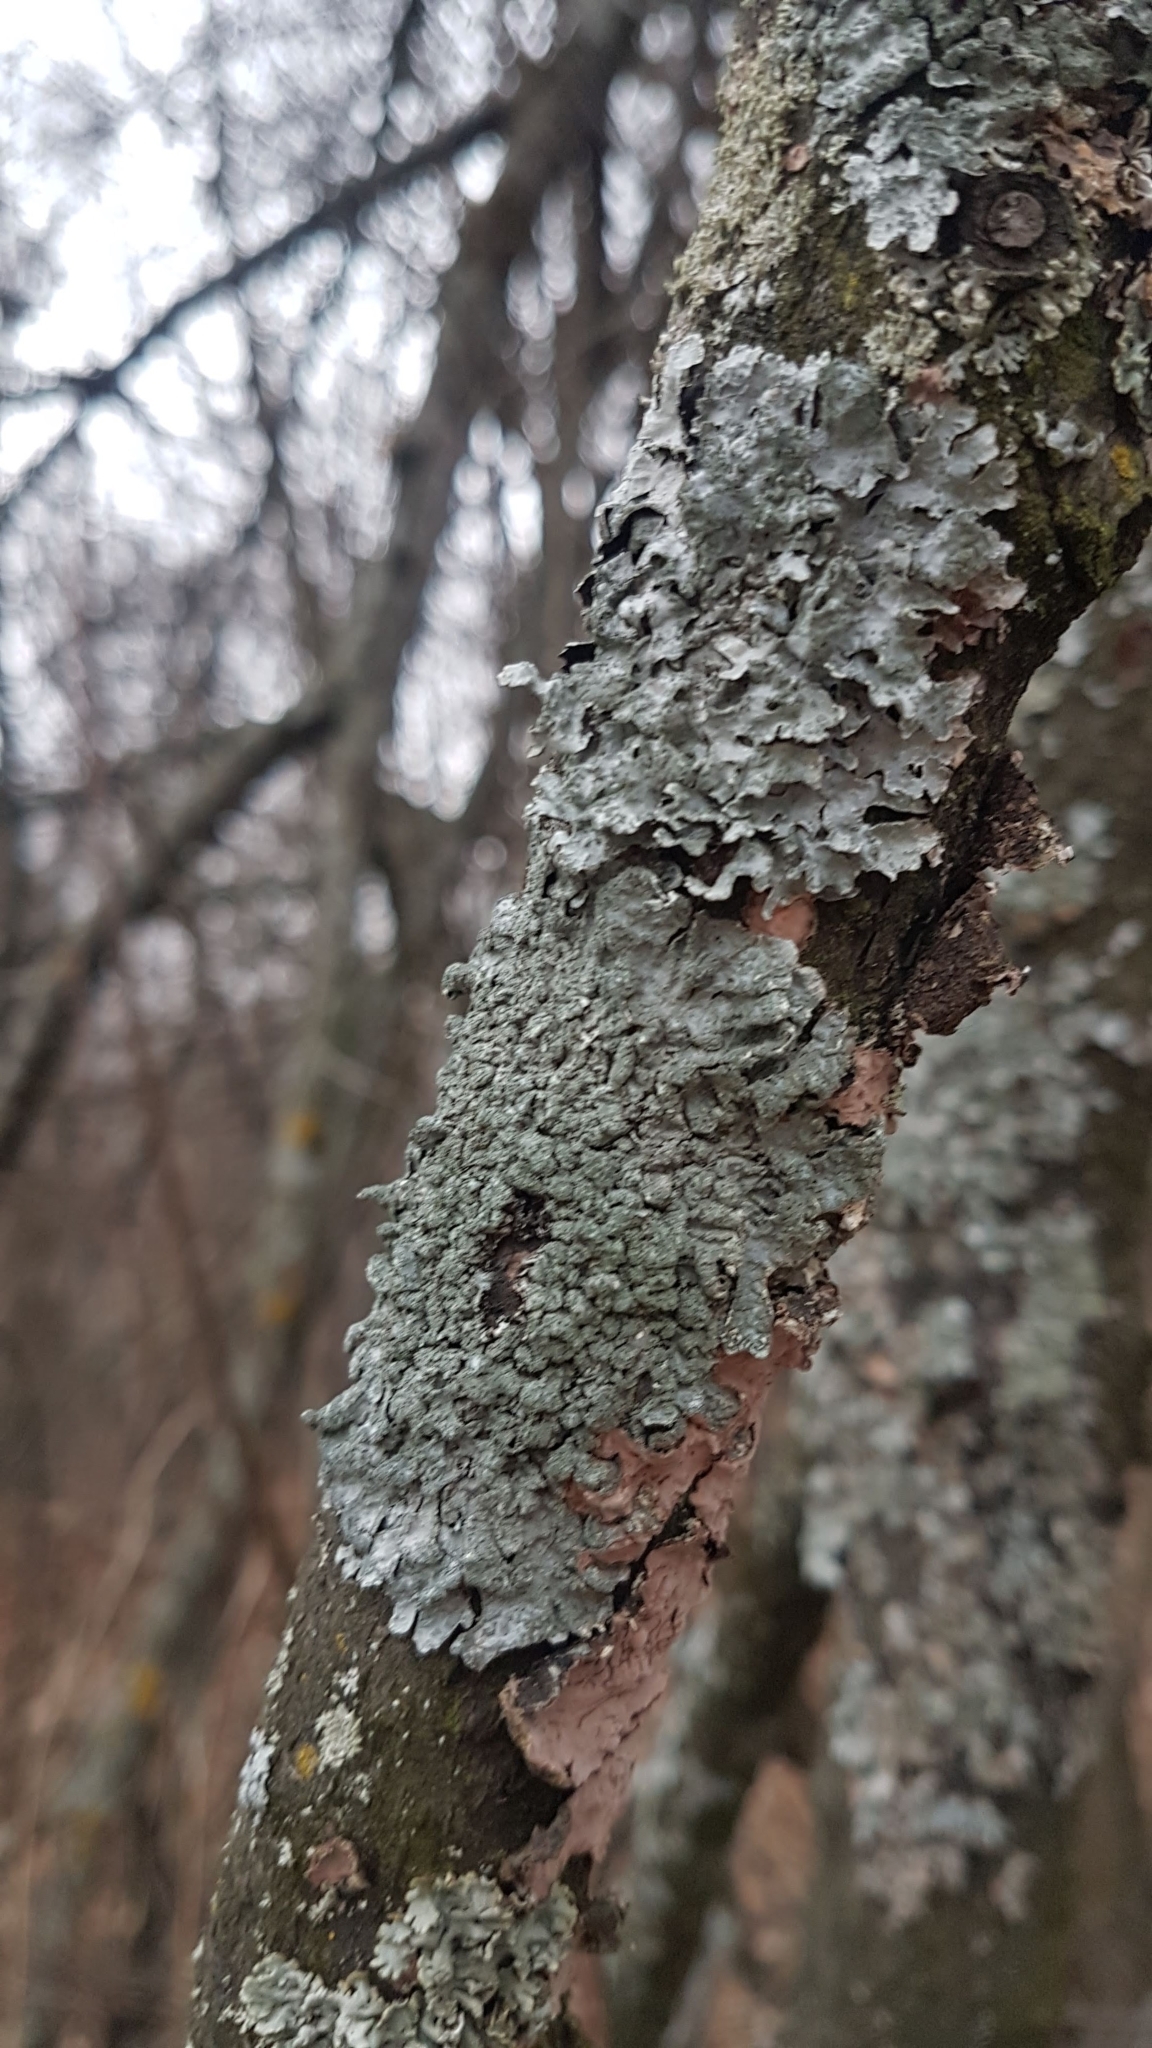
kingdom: Fungi
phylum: Ascomycota
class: Lecanoromycetes
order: Lecanorales
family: Parmeliaceae
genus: Parmelia
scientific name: Parmelia sulcata
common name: Netted shield lichen
